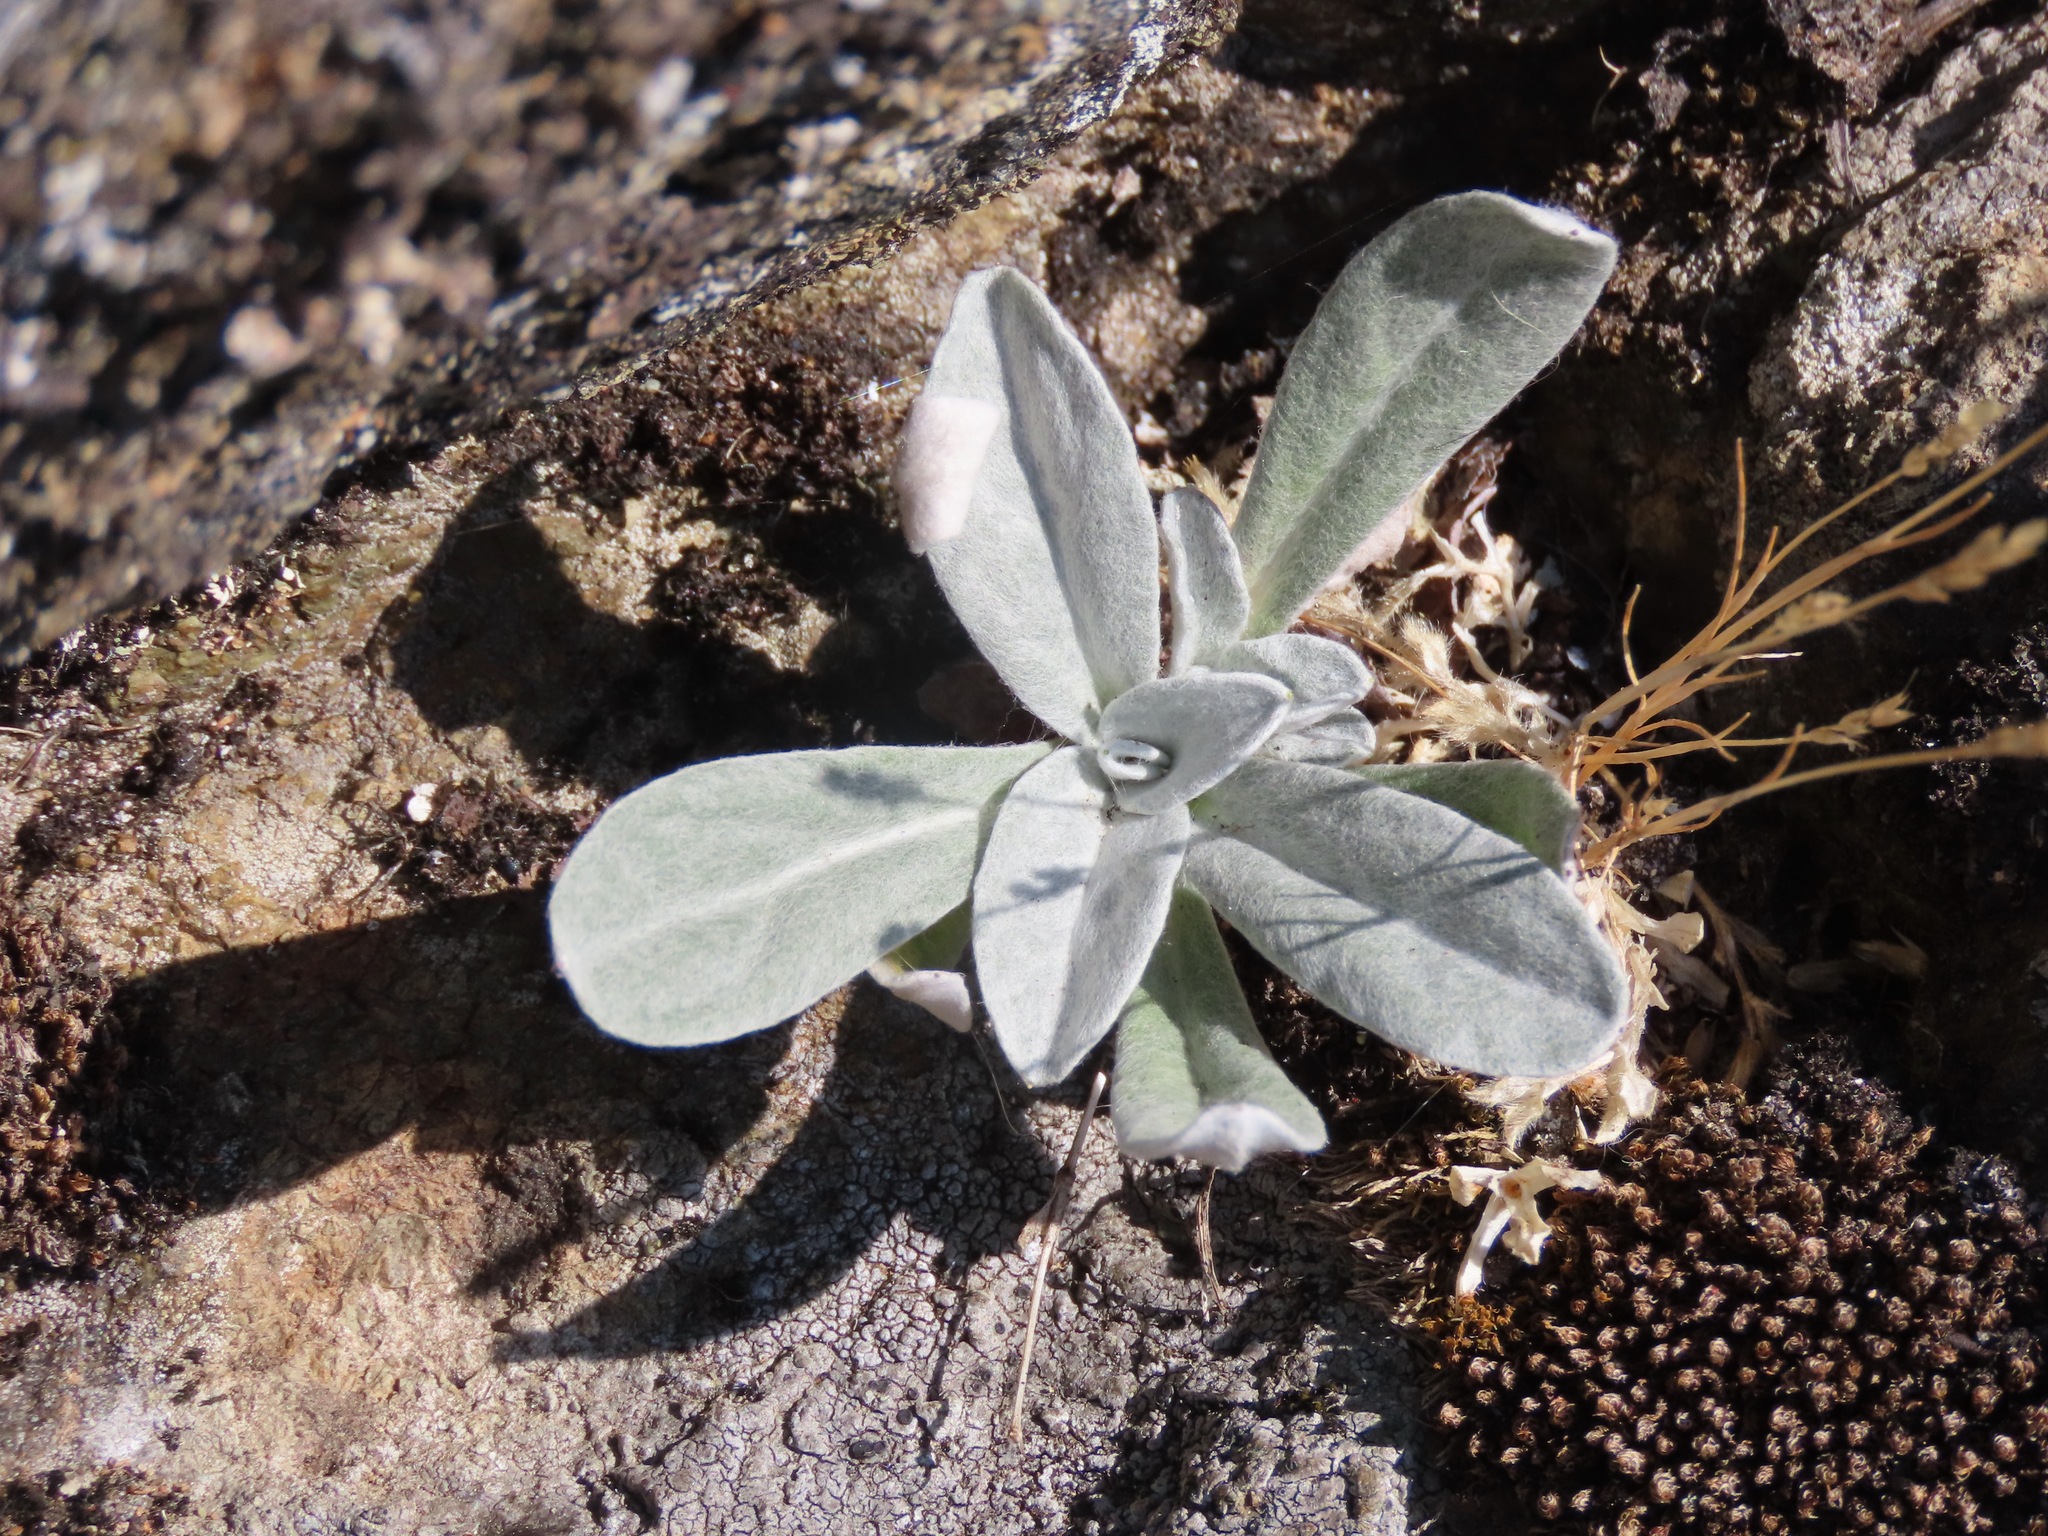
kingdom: Plantae
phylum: Tracheophyta
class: Magnoliopsida
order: Asterales
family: Asteraceae
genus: Gamochaeta
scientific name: Gamochaeta ustulata
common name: Pacific cudweed
